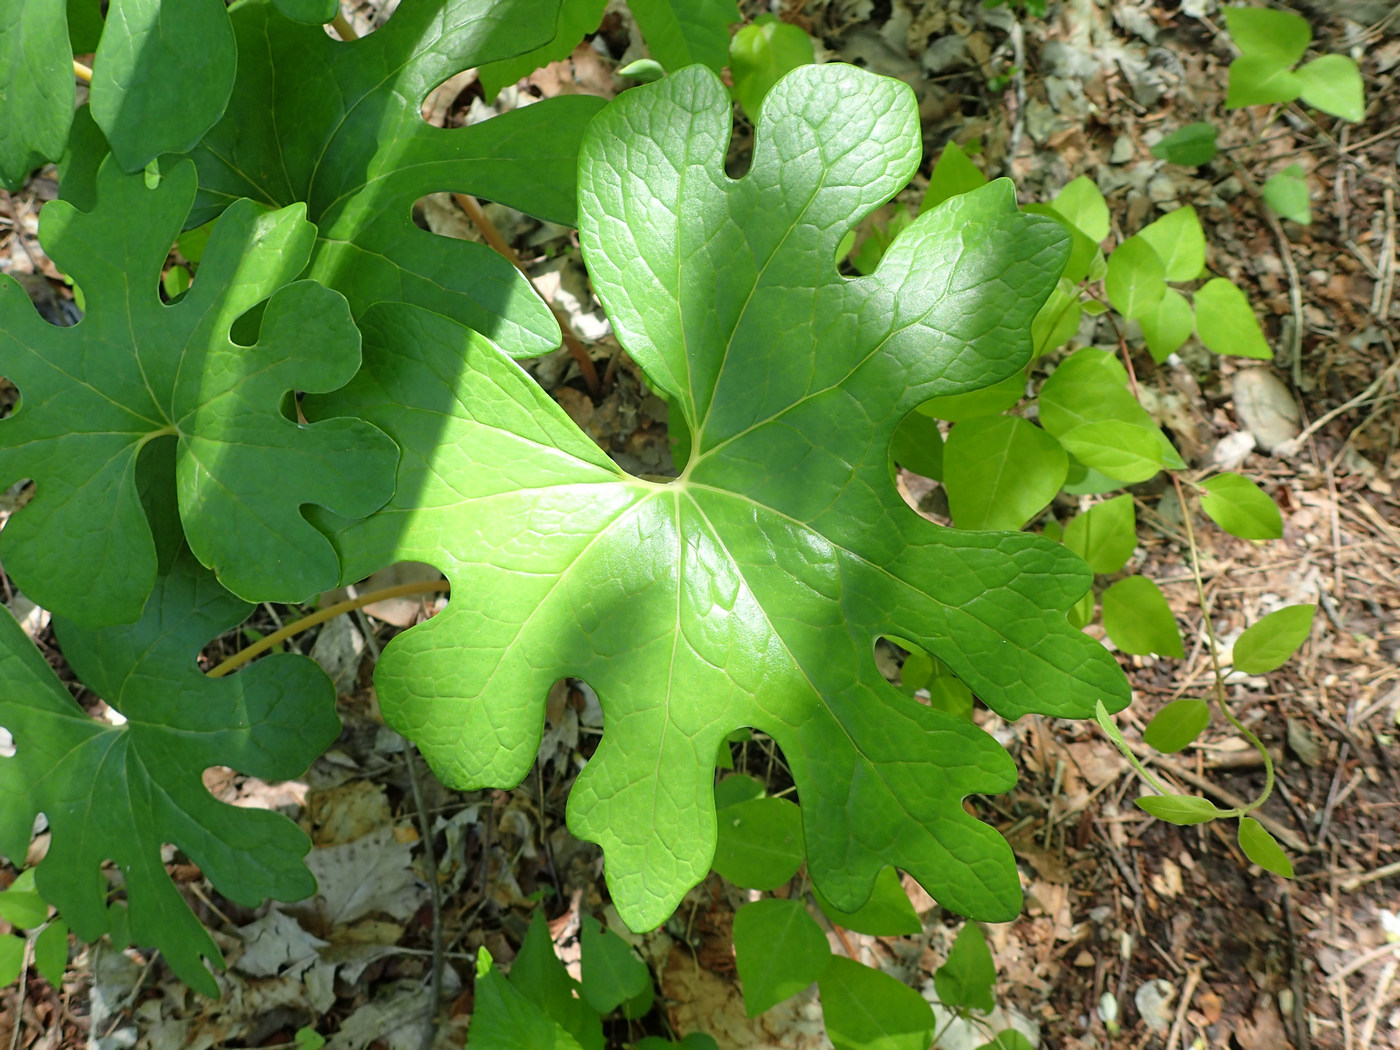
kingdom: Plantae
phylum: Tracheophyta
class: Magnoliopsida
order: Ranunculales
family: Papaveraceae
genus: Sanguinaria
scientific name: Sanguinaria canadensis
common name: Bloodroot
